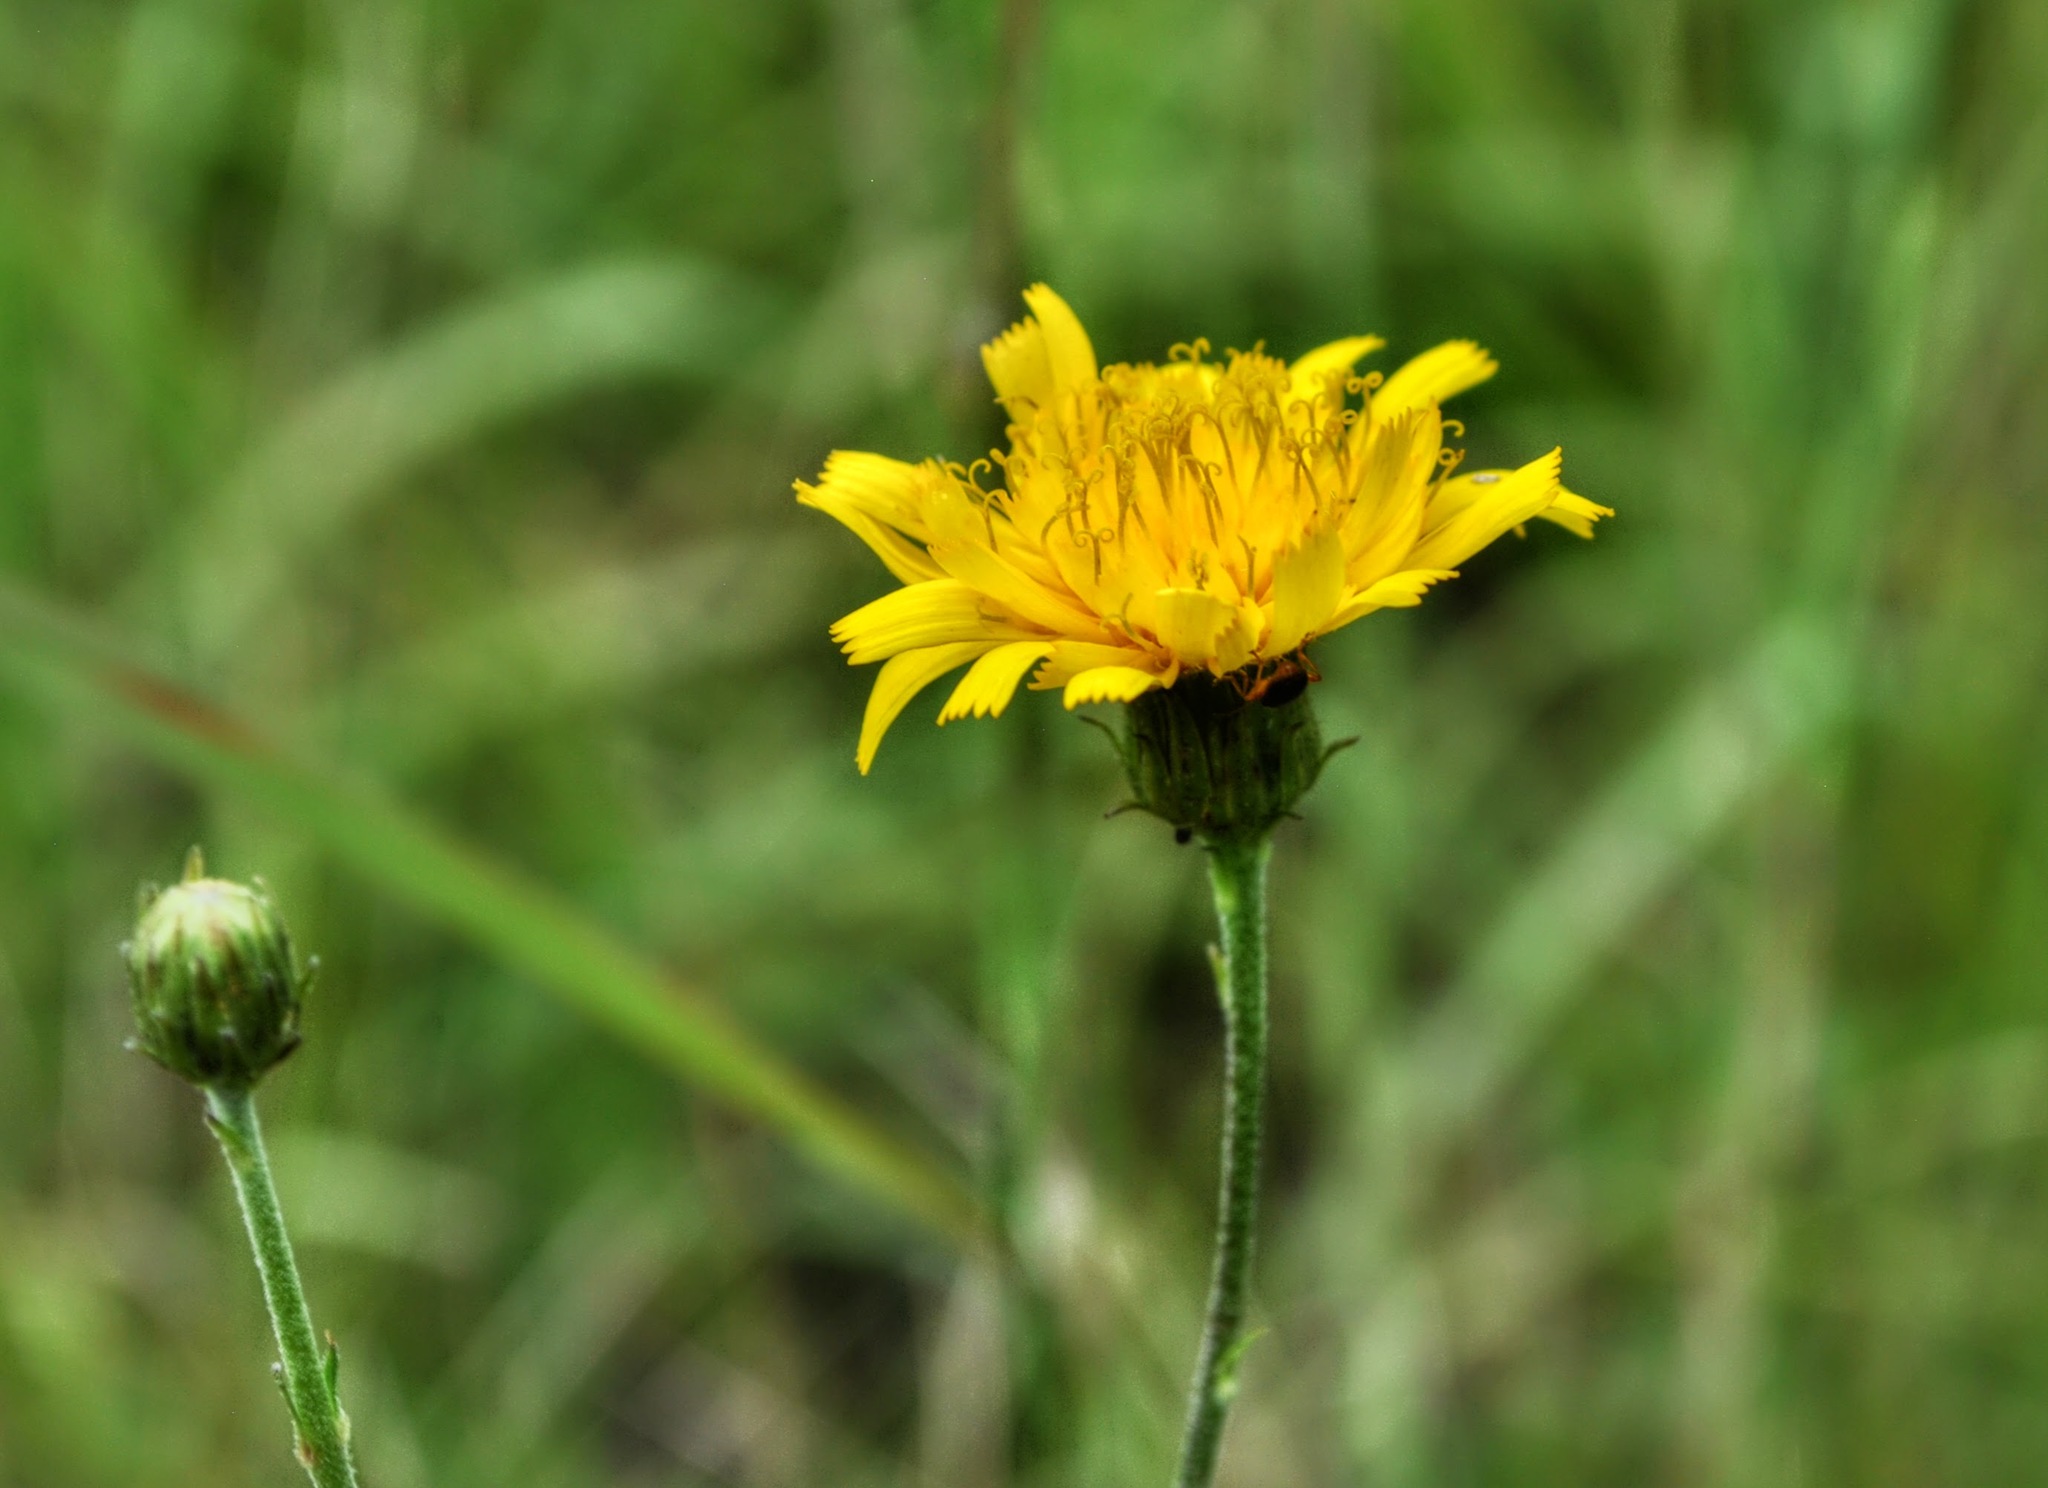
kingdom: Plantae
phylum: Tracheophyta
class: Magnoliopsida
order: Asterales
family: Asteraceae
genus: Hieracium
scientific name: Hieracium umbellatum
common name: Northern hawkweed
